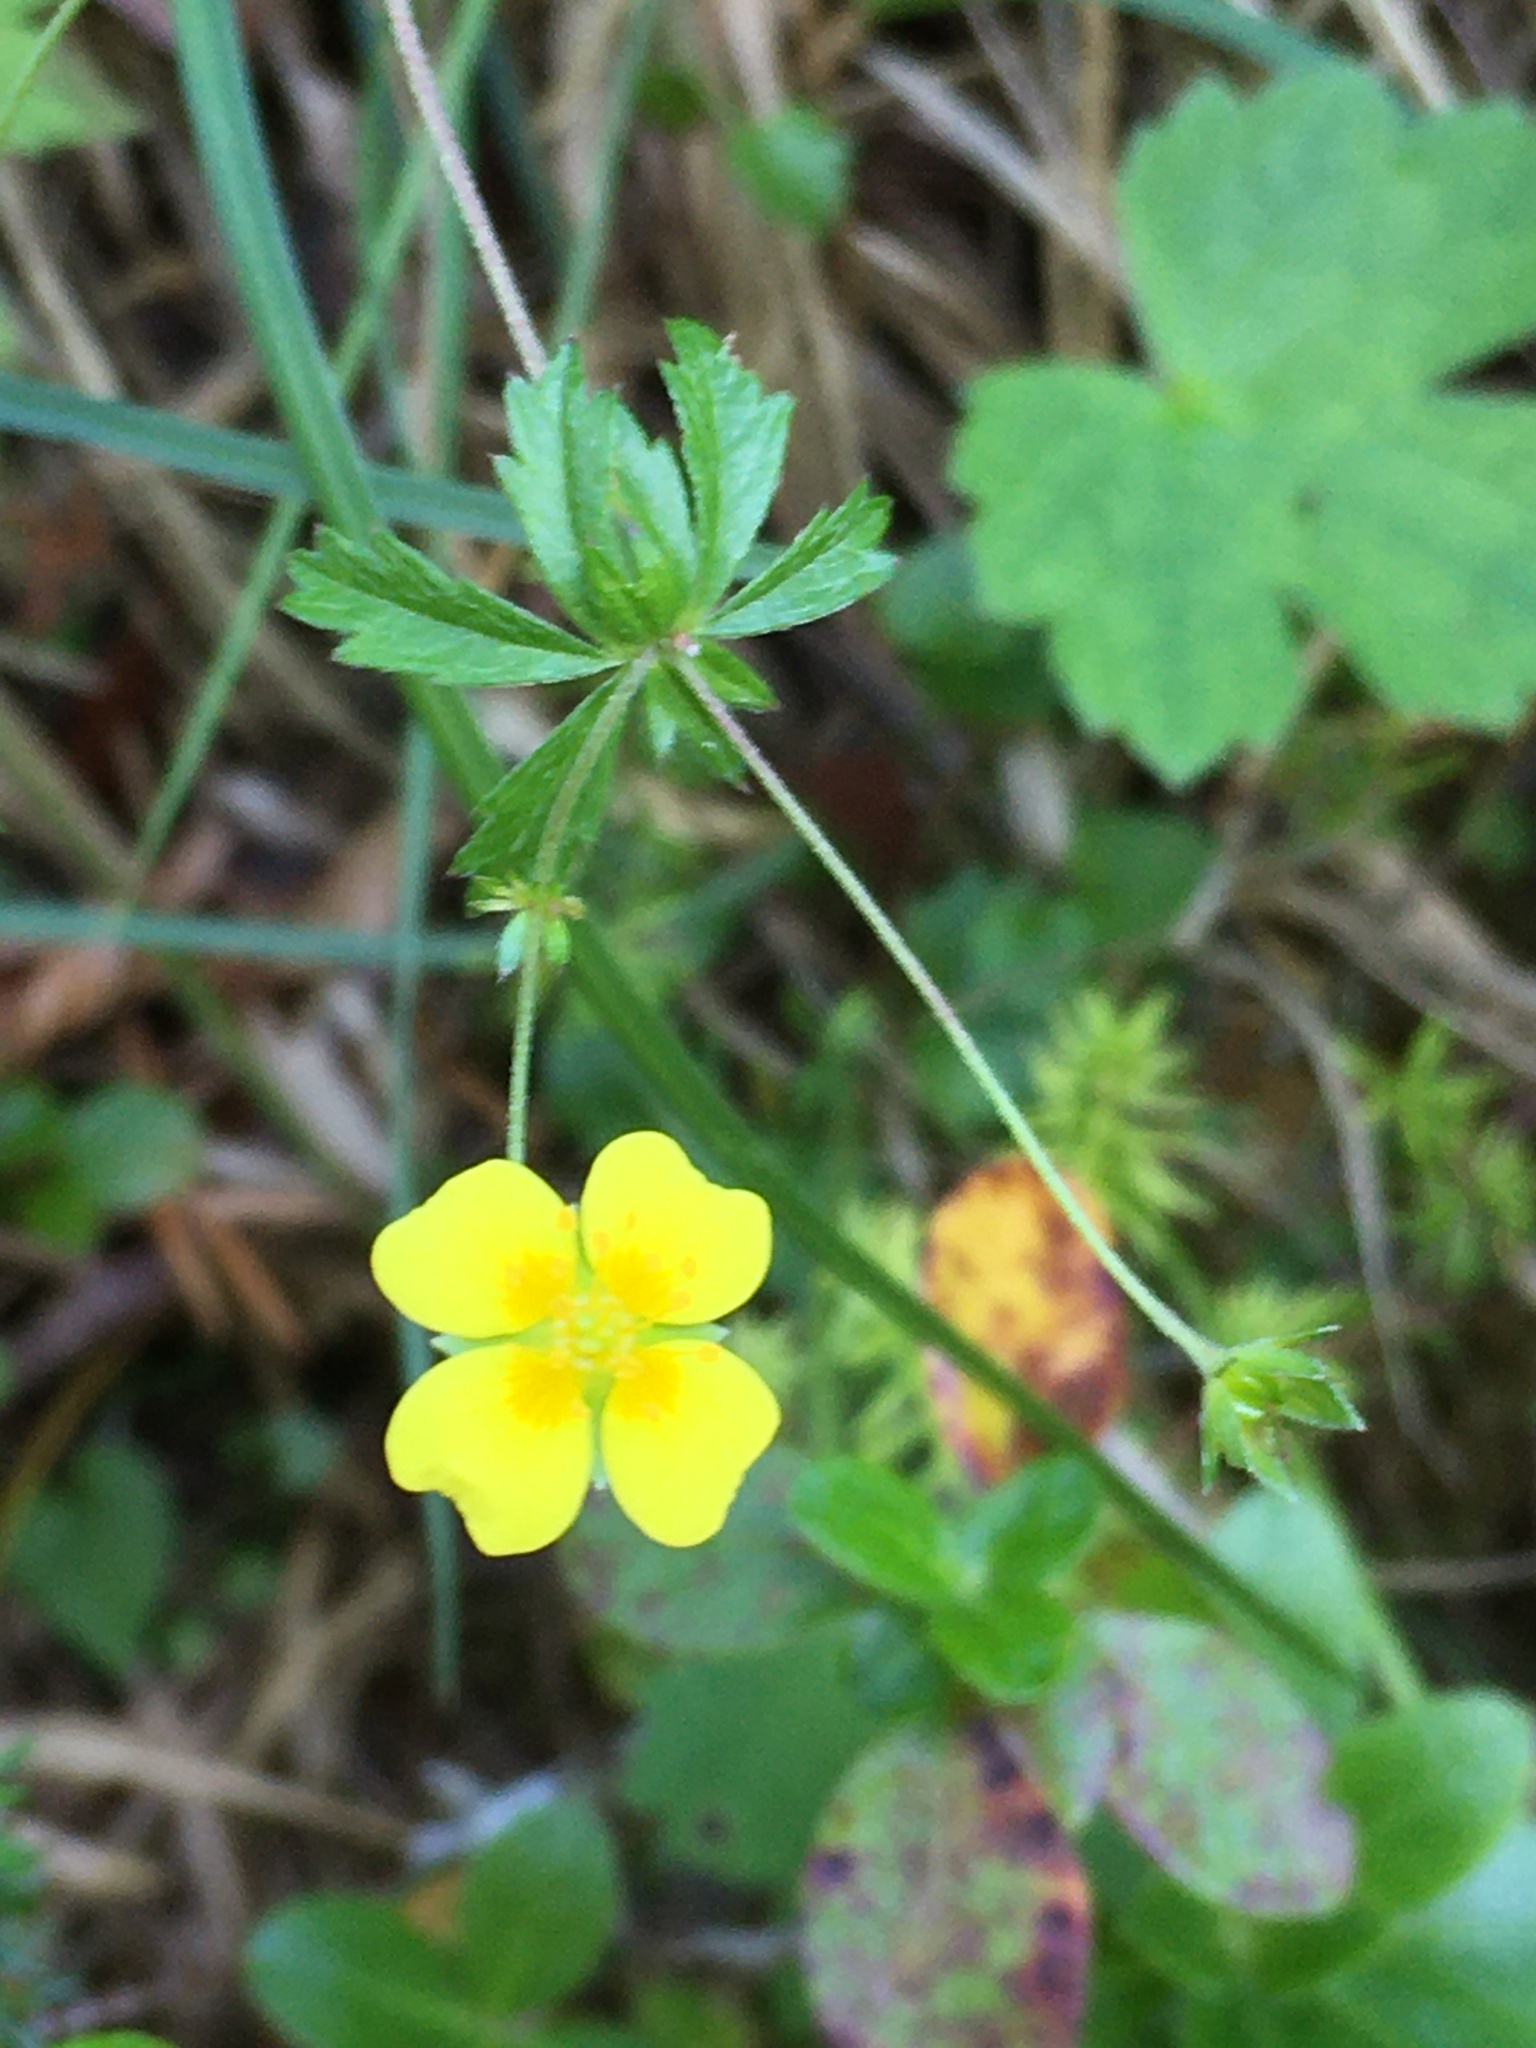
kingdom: Plantae
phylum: Tracheophyta
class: Magnoliopsida
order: Rosales
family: Rosaceae
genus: Potentilla
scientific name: Potentilla erecta
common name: Tormentil
